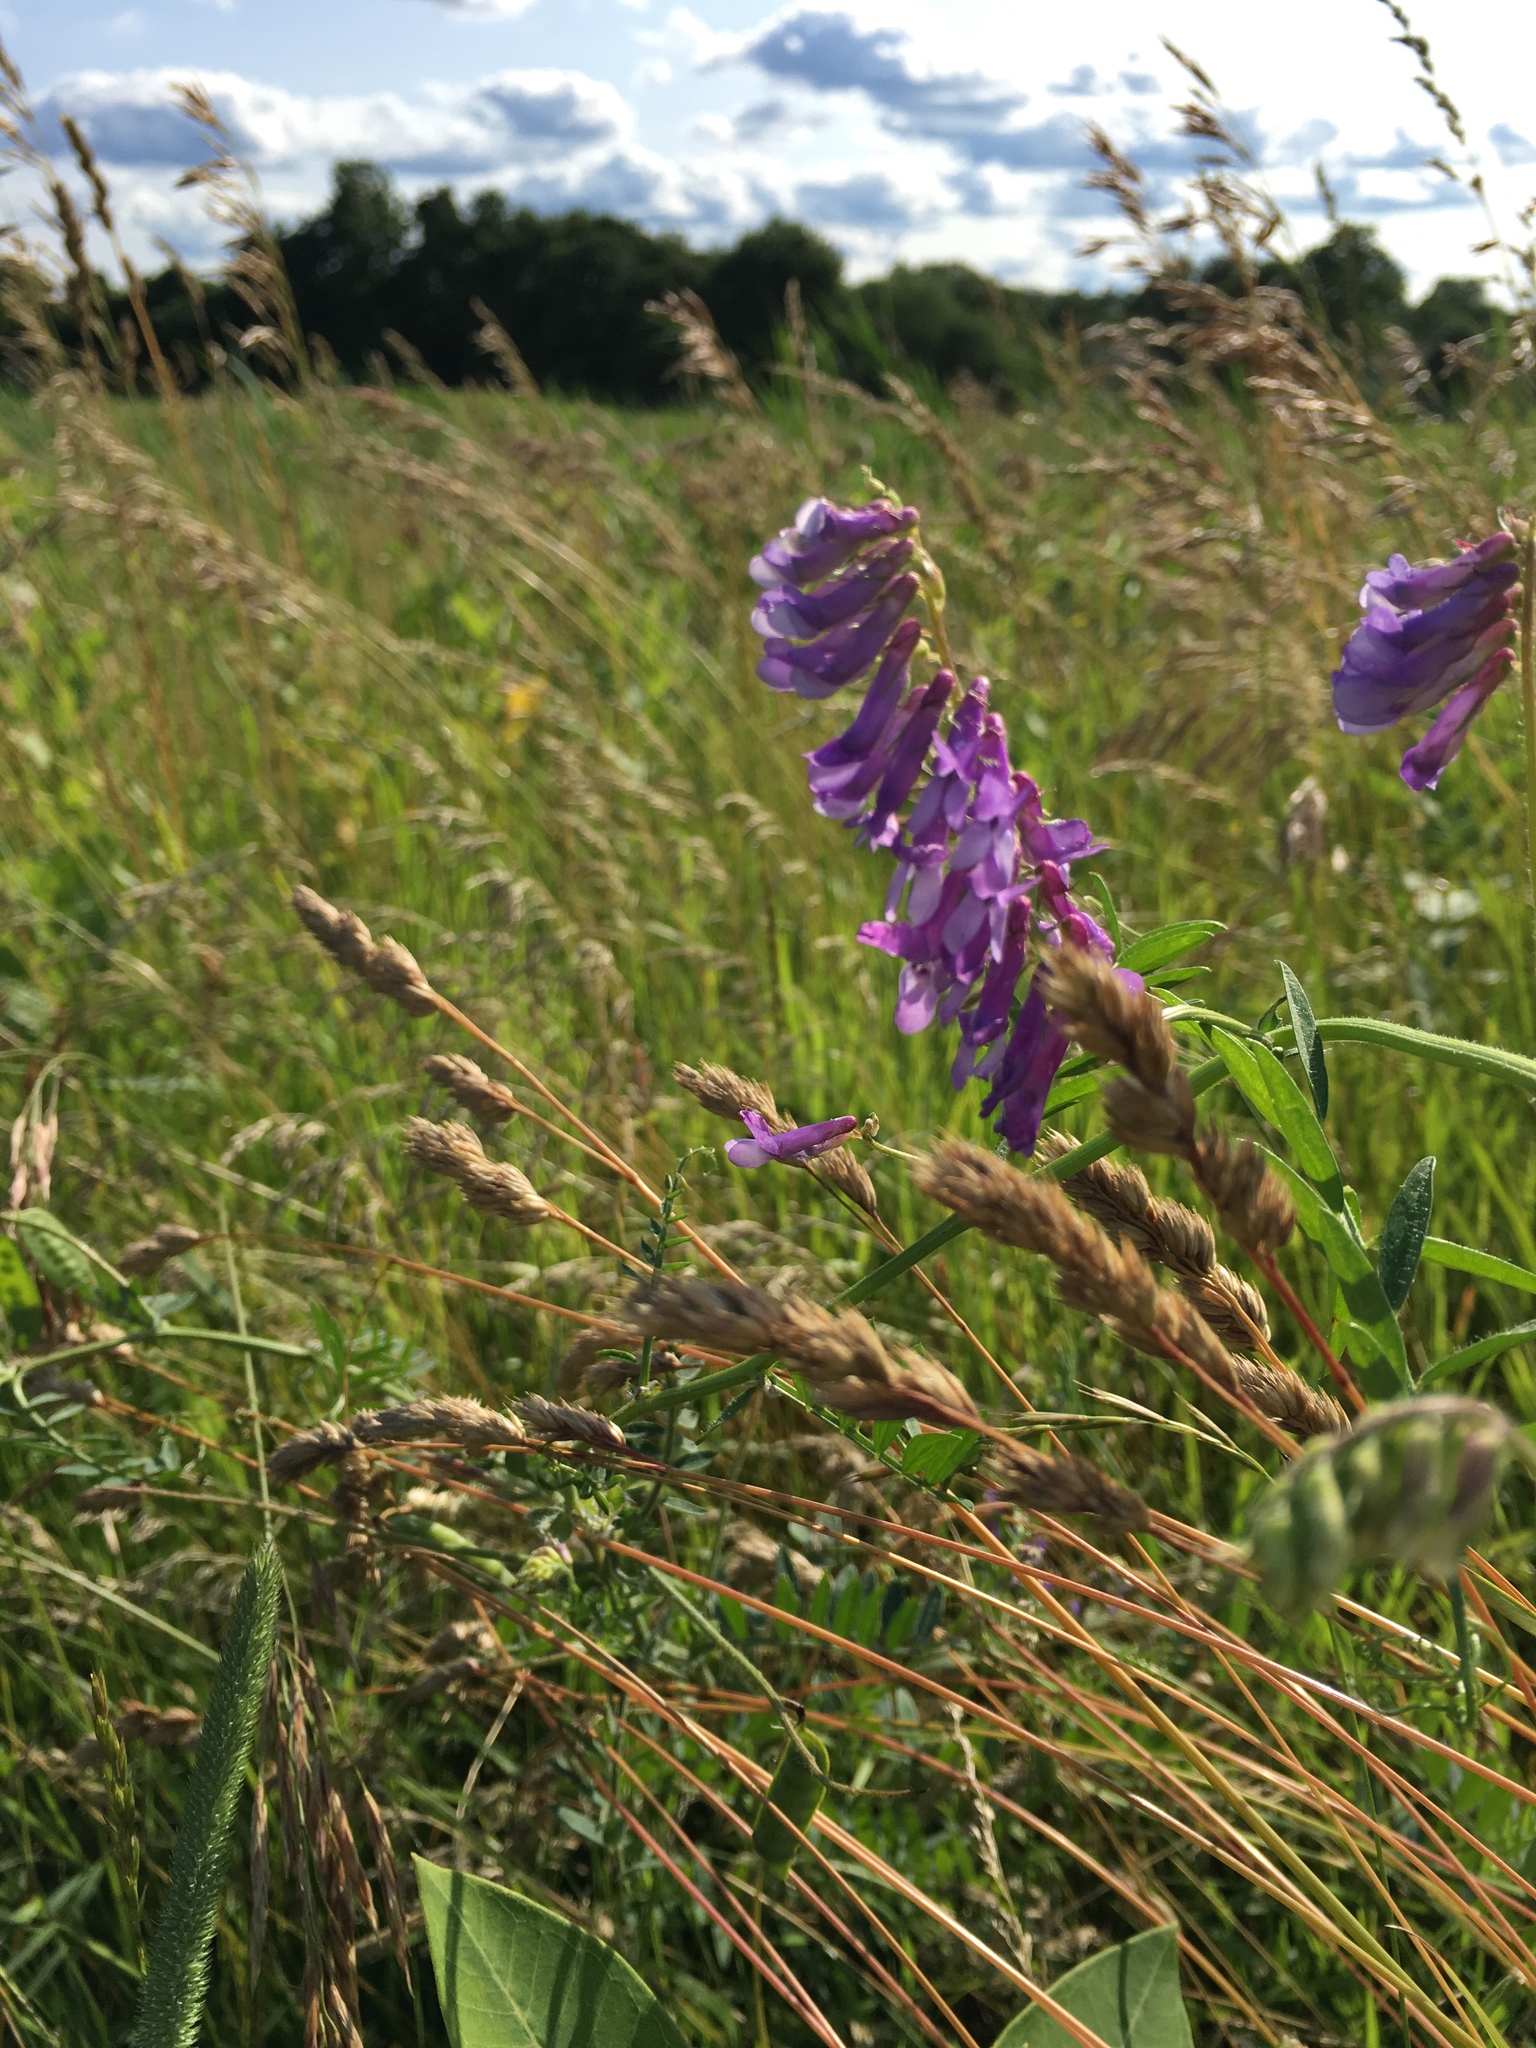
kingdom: Plantae
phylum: Tracheophyta
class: Magnoliopsida
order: Fabales
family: Fabaceae
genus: Vicia
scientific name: Vicia villosa
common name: Fodder vetch
